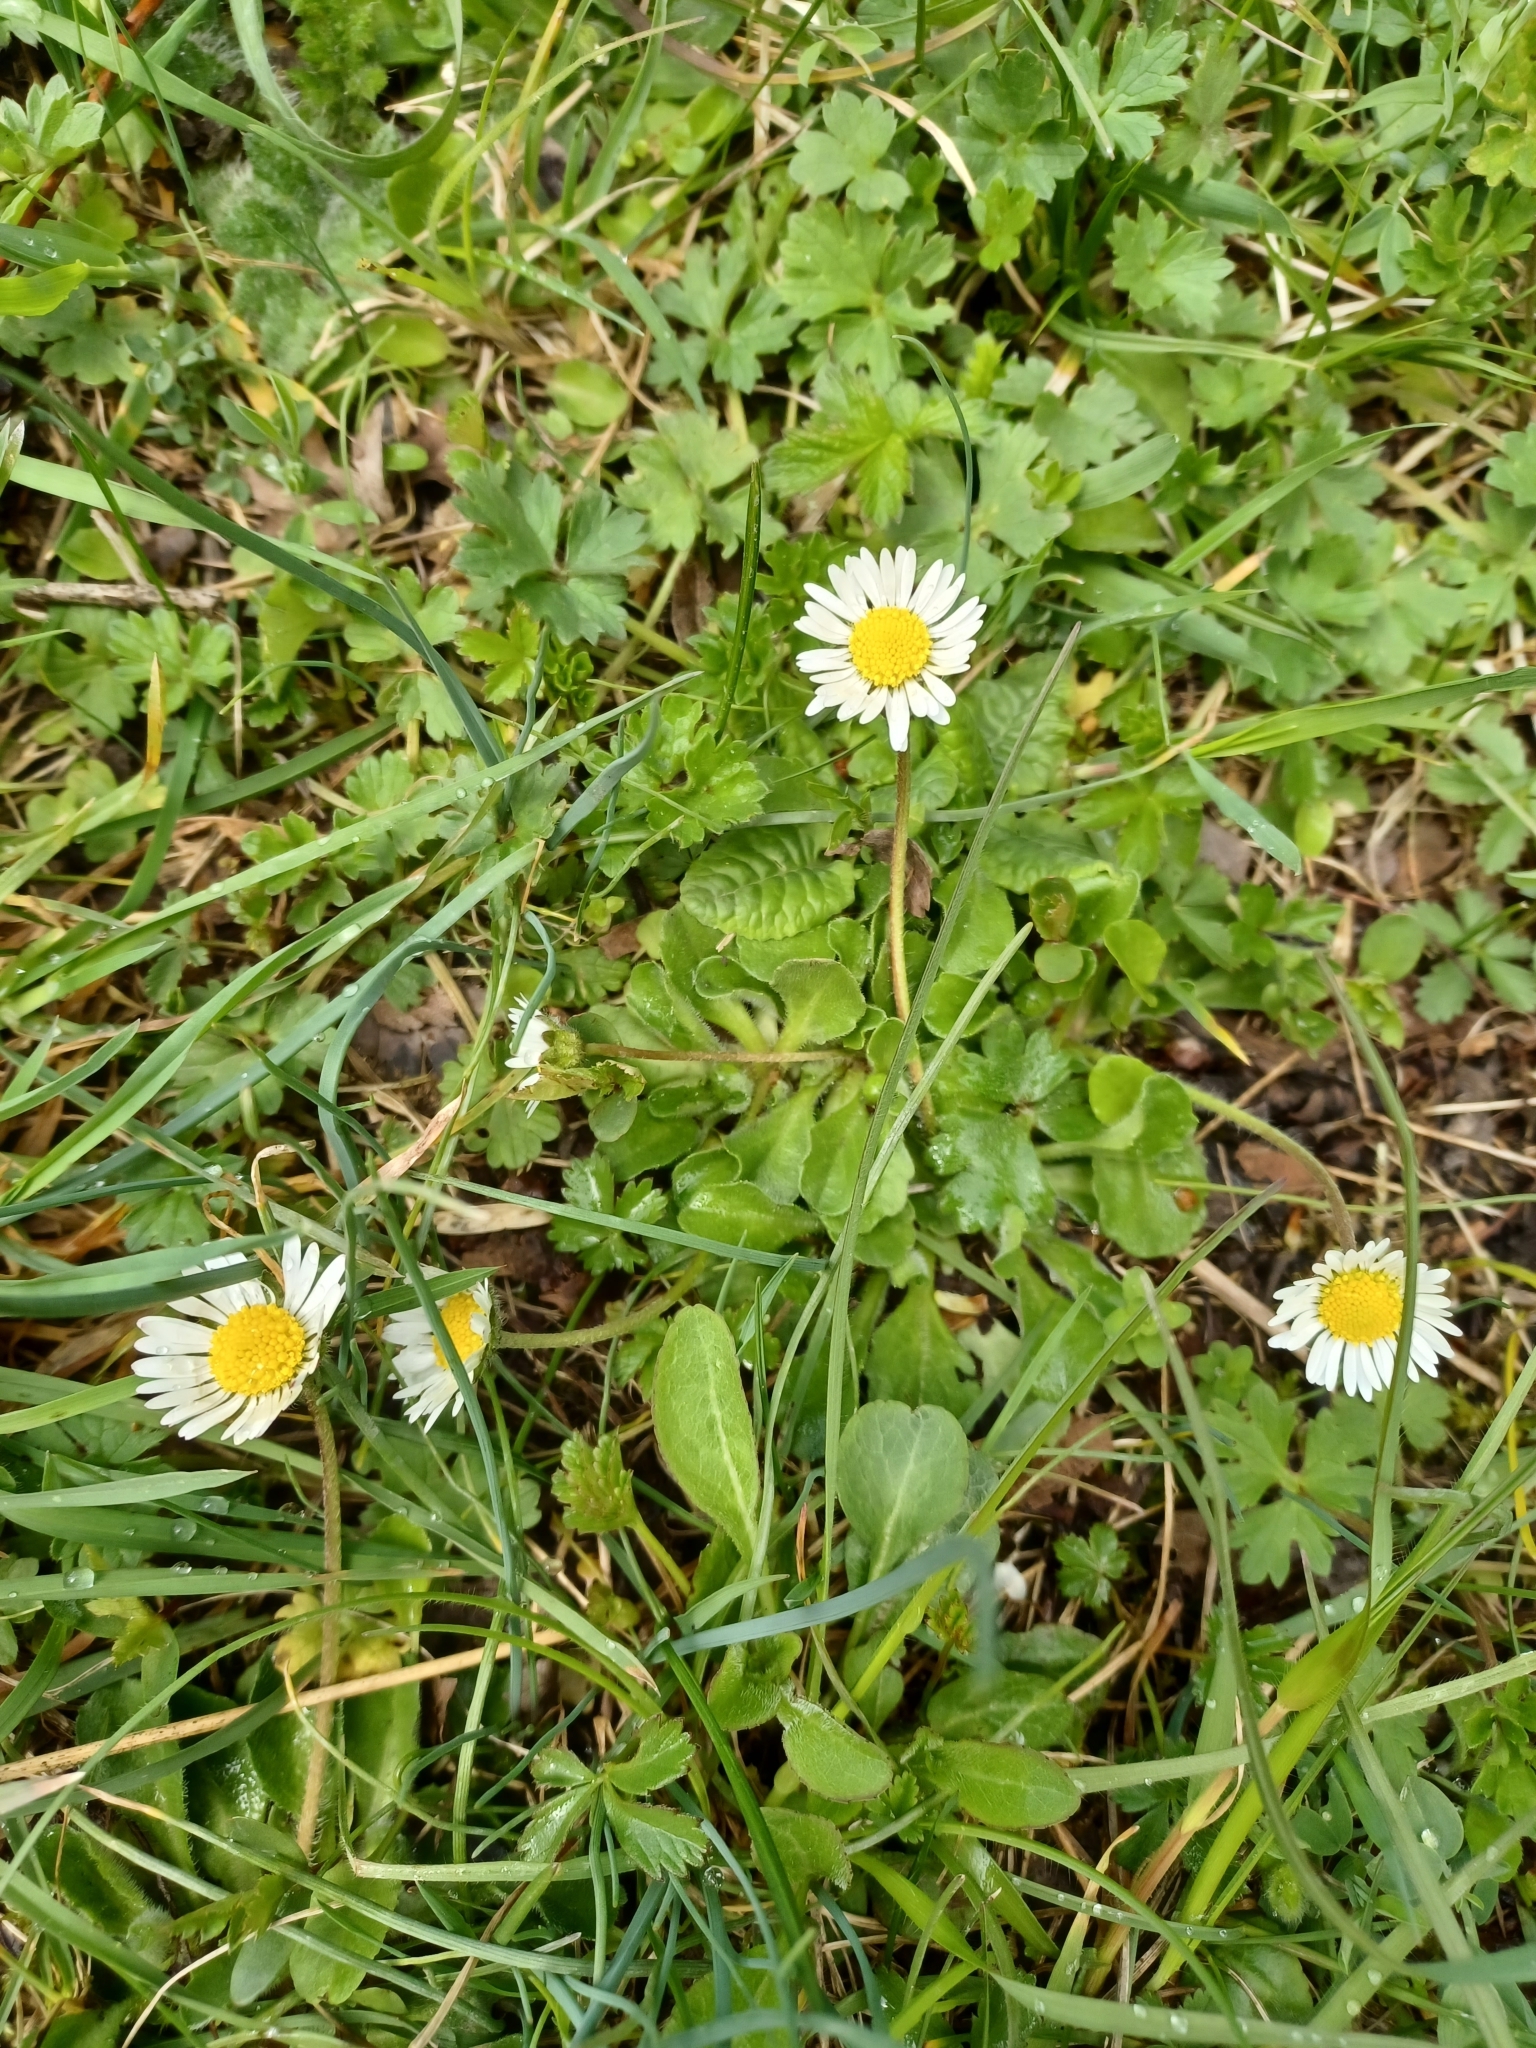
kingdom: Plantae
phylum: Tracheophyta
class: Magnoliopsida
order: Asterales
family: Asteraceae
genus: Bellis
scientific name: Bellis perennis
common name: Lawndaisy
